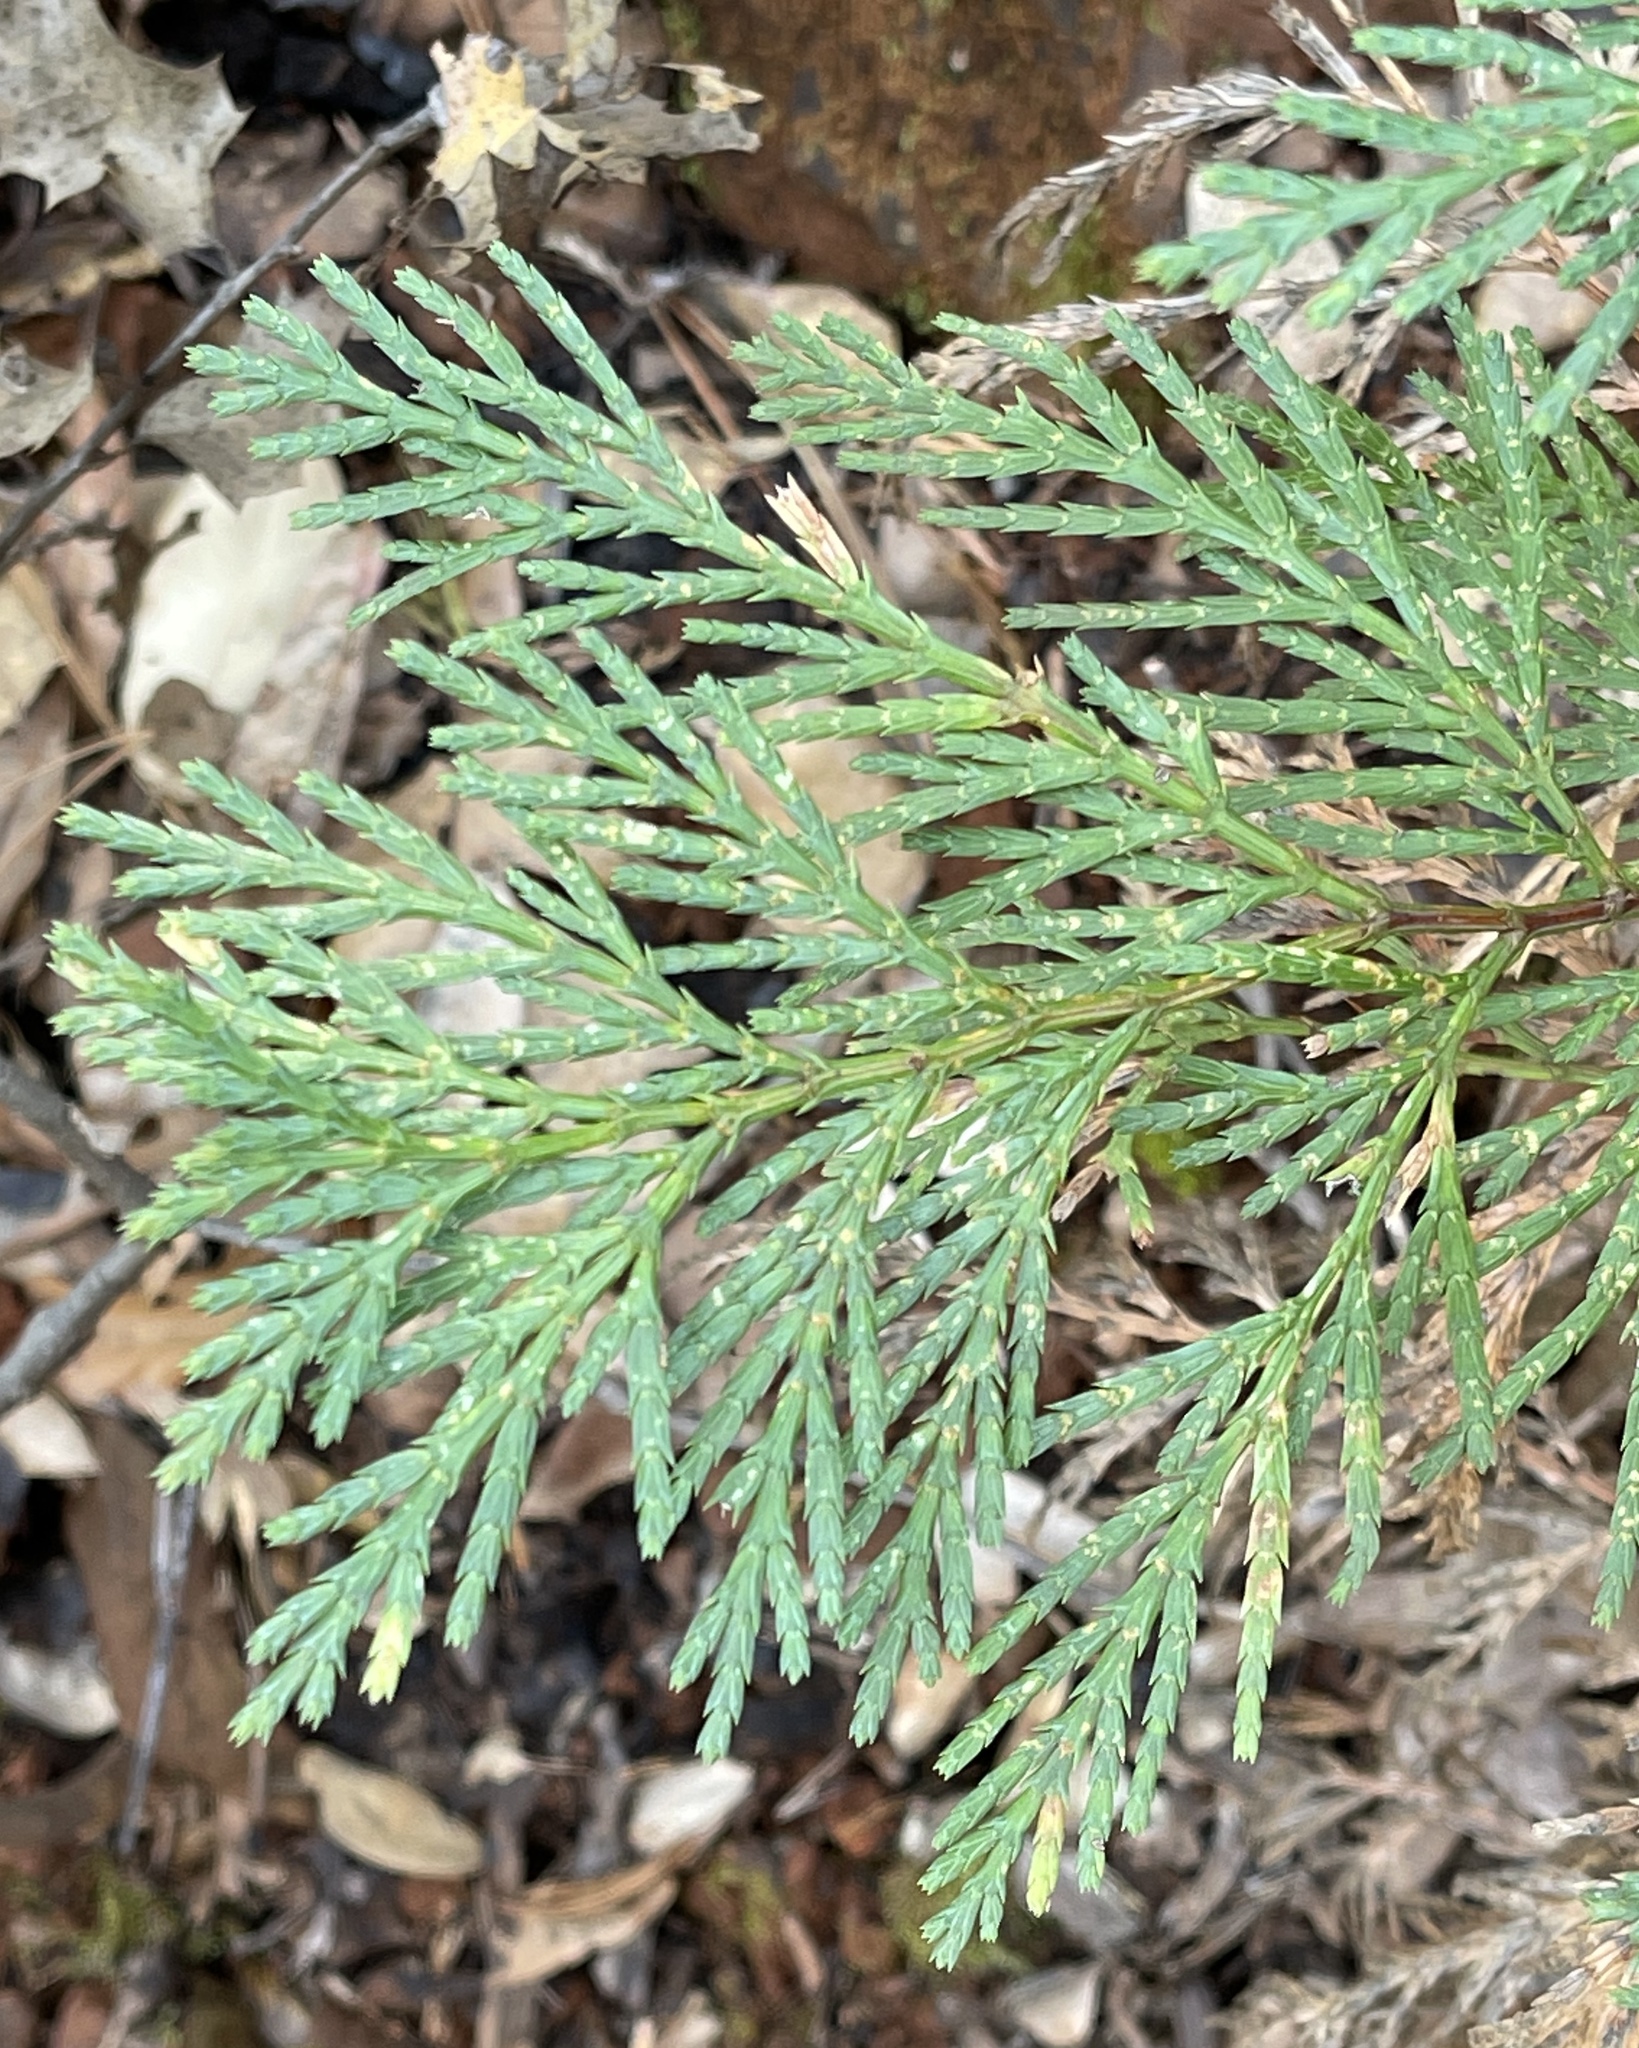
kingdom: Plantae
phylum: Tracheophyta
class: Pinopsida
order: Pinales
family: Cupressaceae
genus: Calocedrus
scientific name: Calocedrus decurrens
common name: Californian incense-cedar
